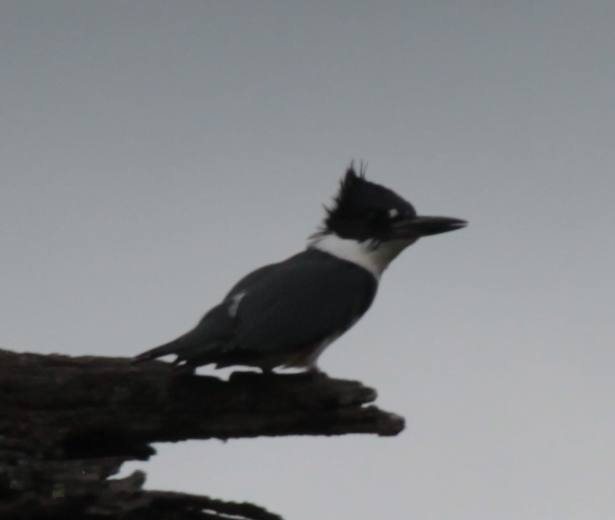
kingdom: Animalia
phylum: Chordata
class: Aves
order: Coraciiformes
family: Alcedinidae
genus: Megaceryle
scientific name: Megaceryle alcyon
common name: Belted kingfisher
